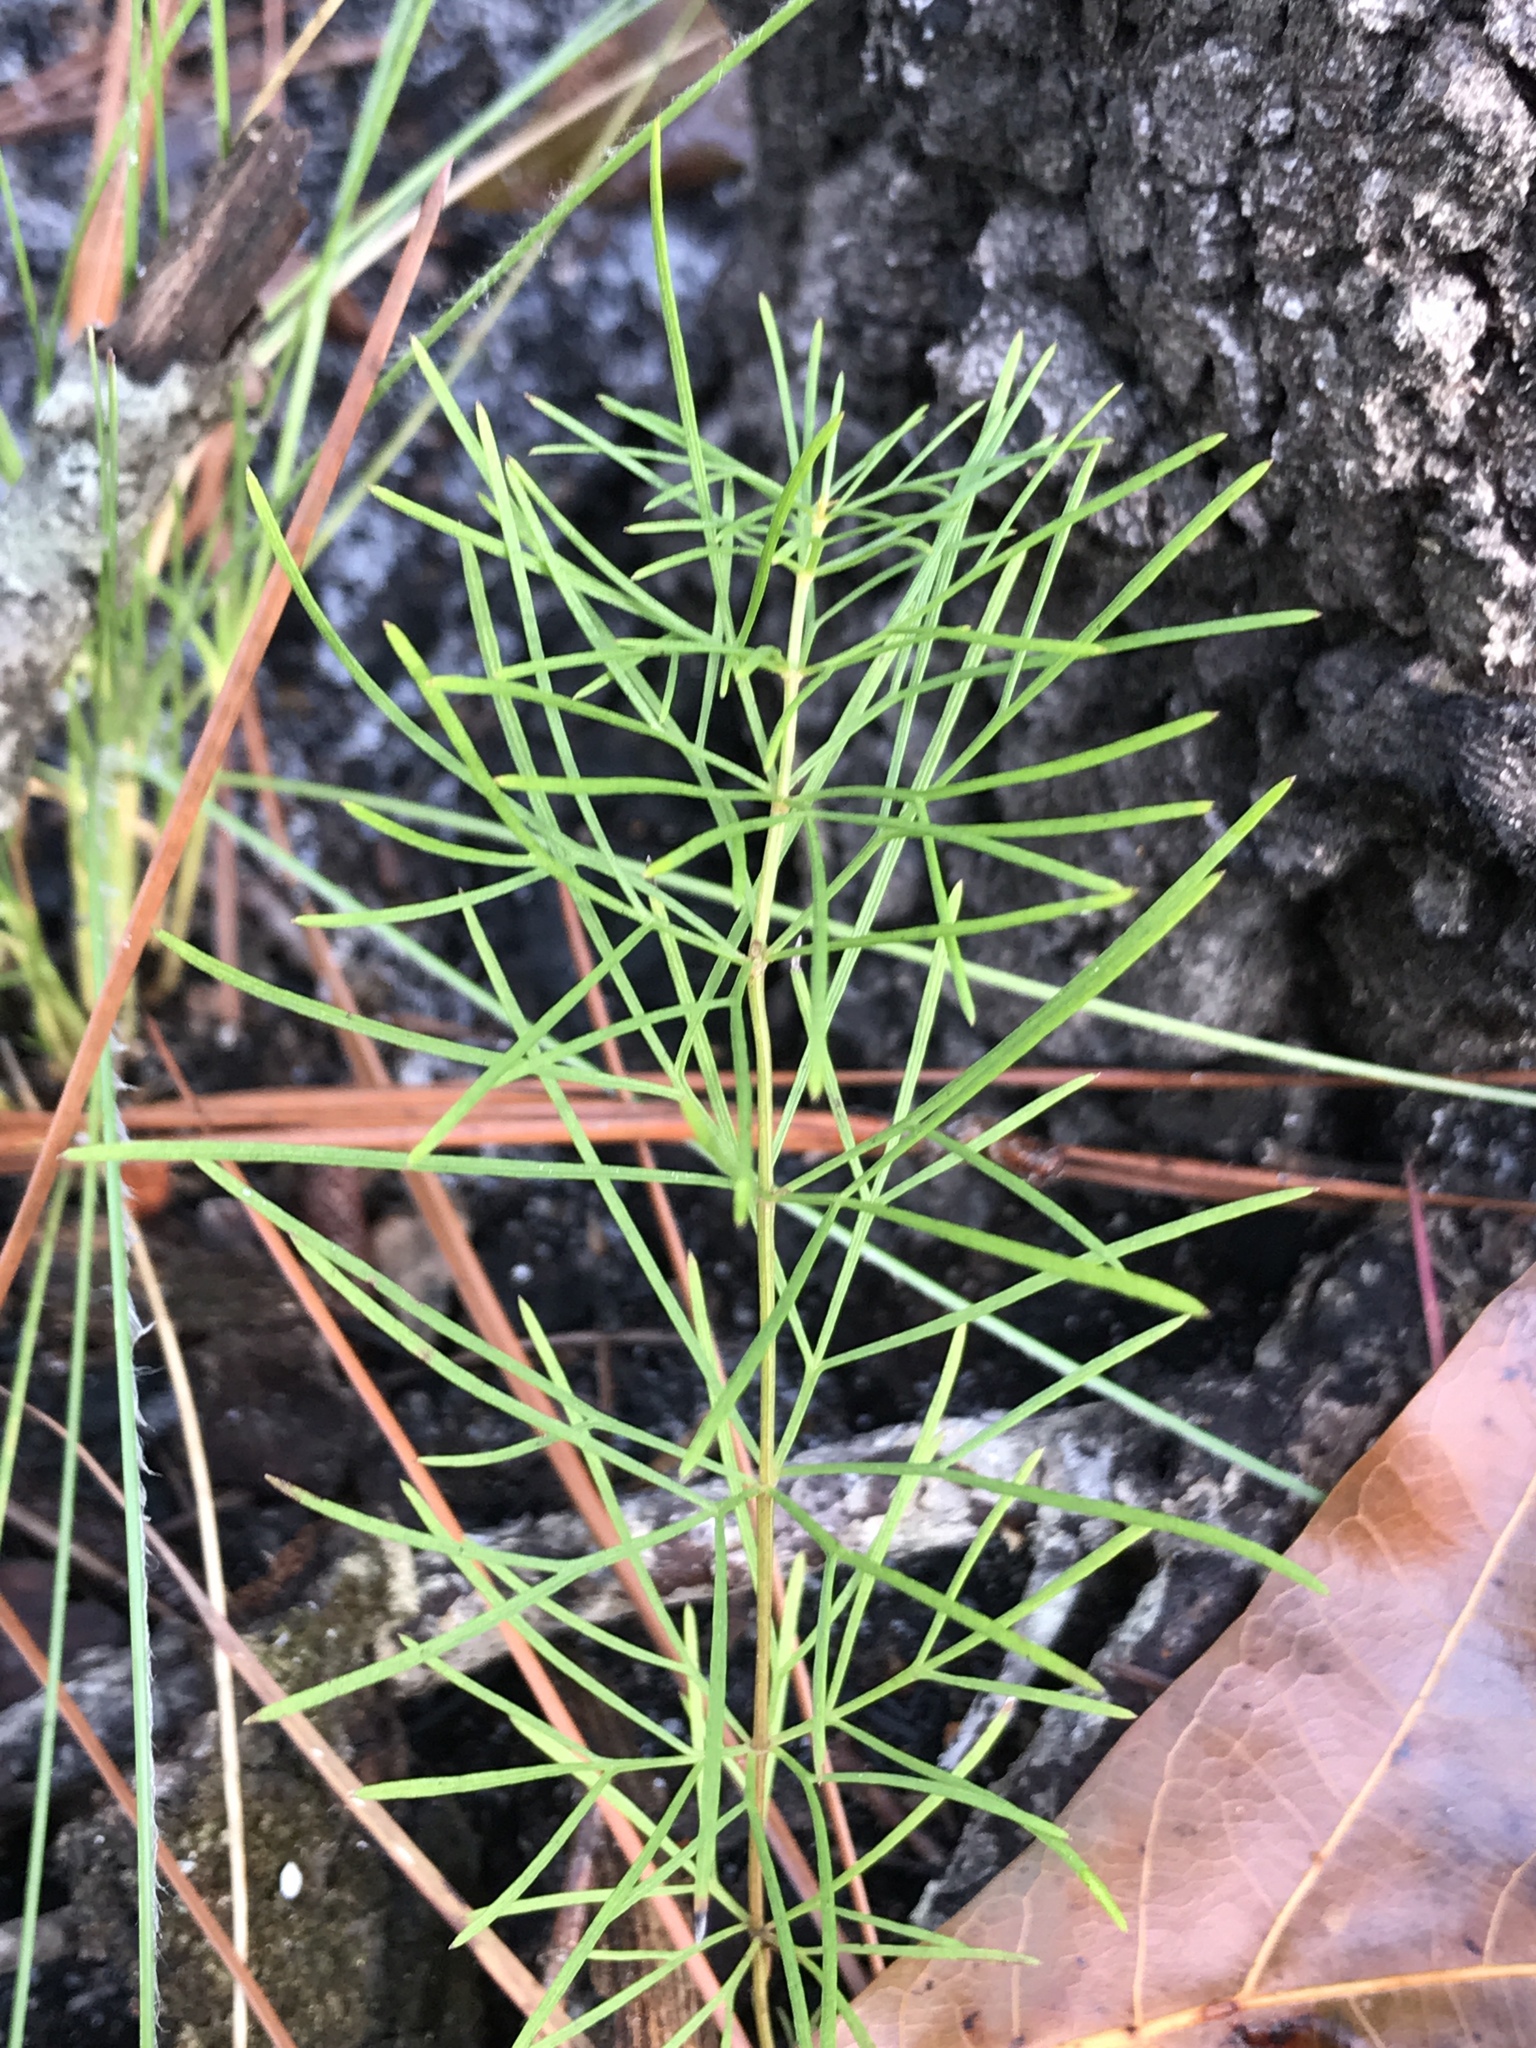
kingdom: Plantae
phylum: Tracheophyta
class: Magnoliopsida
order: Asterales
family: Asteraceae
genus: Coreopsis
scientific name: Coreopsis verticillata
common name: Whorled tickseed
